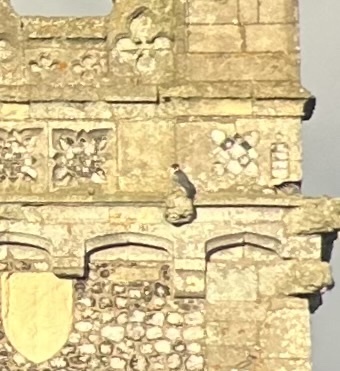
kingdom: Animalia
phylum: Chordata
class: Aves
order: Falconiformes
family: Falconidae
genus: Falco
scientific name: Falco peregrinus
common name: Peregrine falcon
